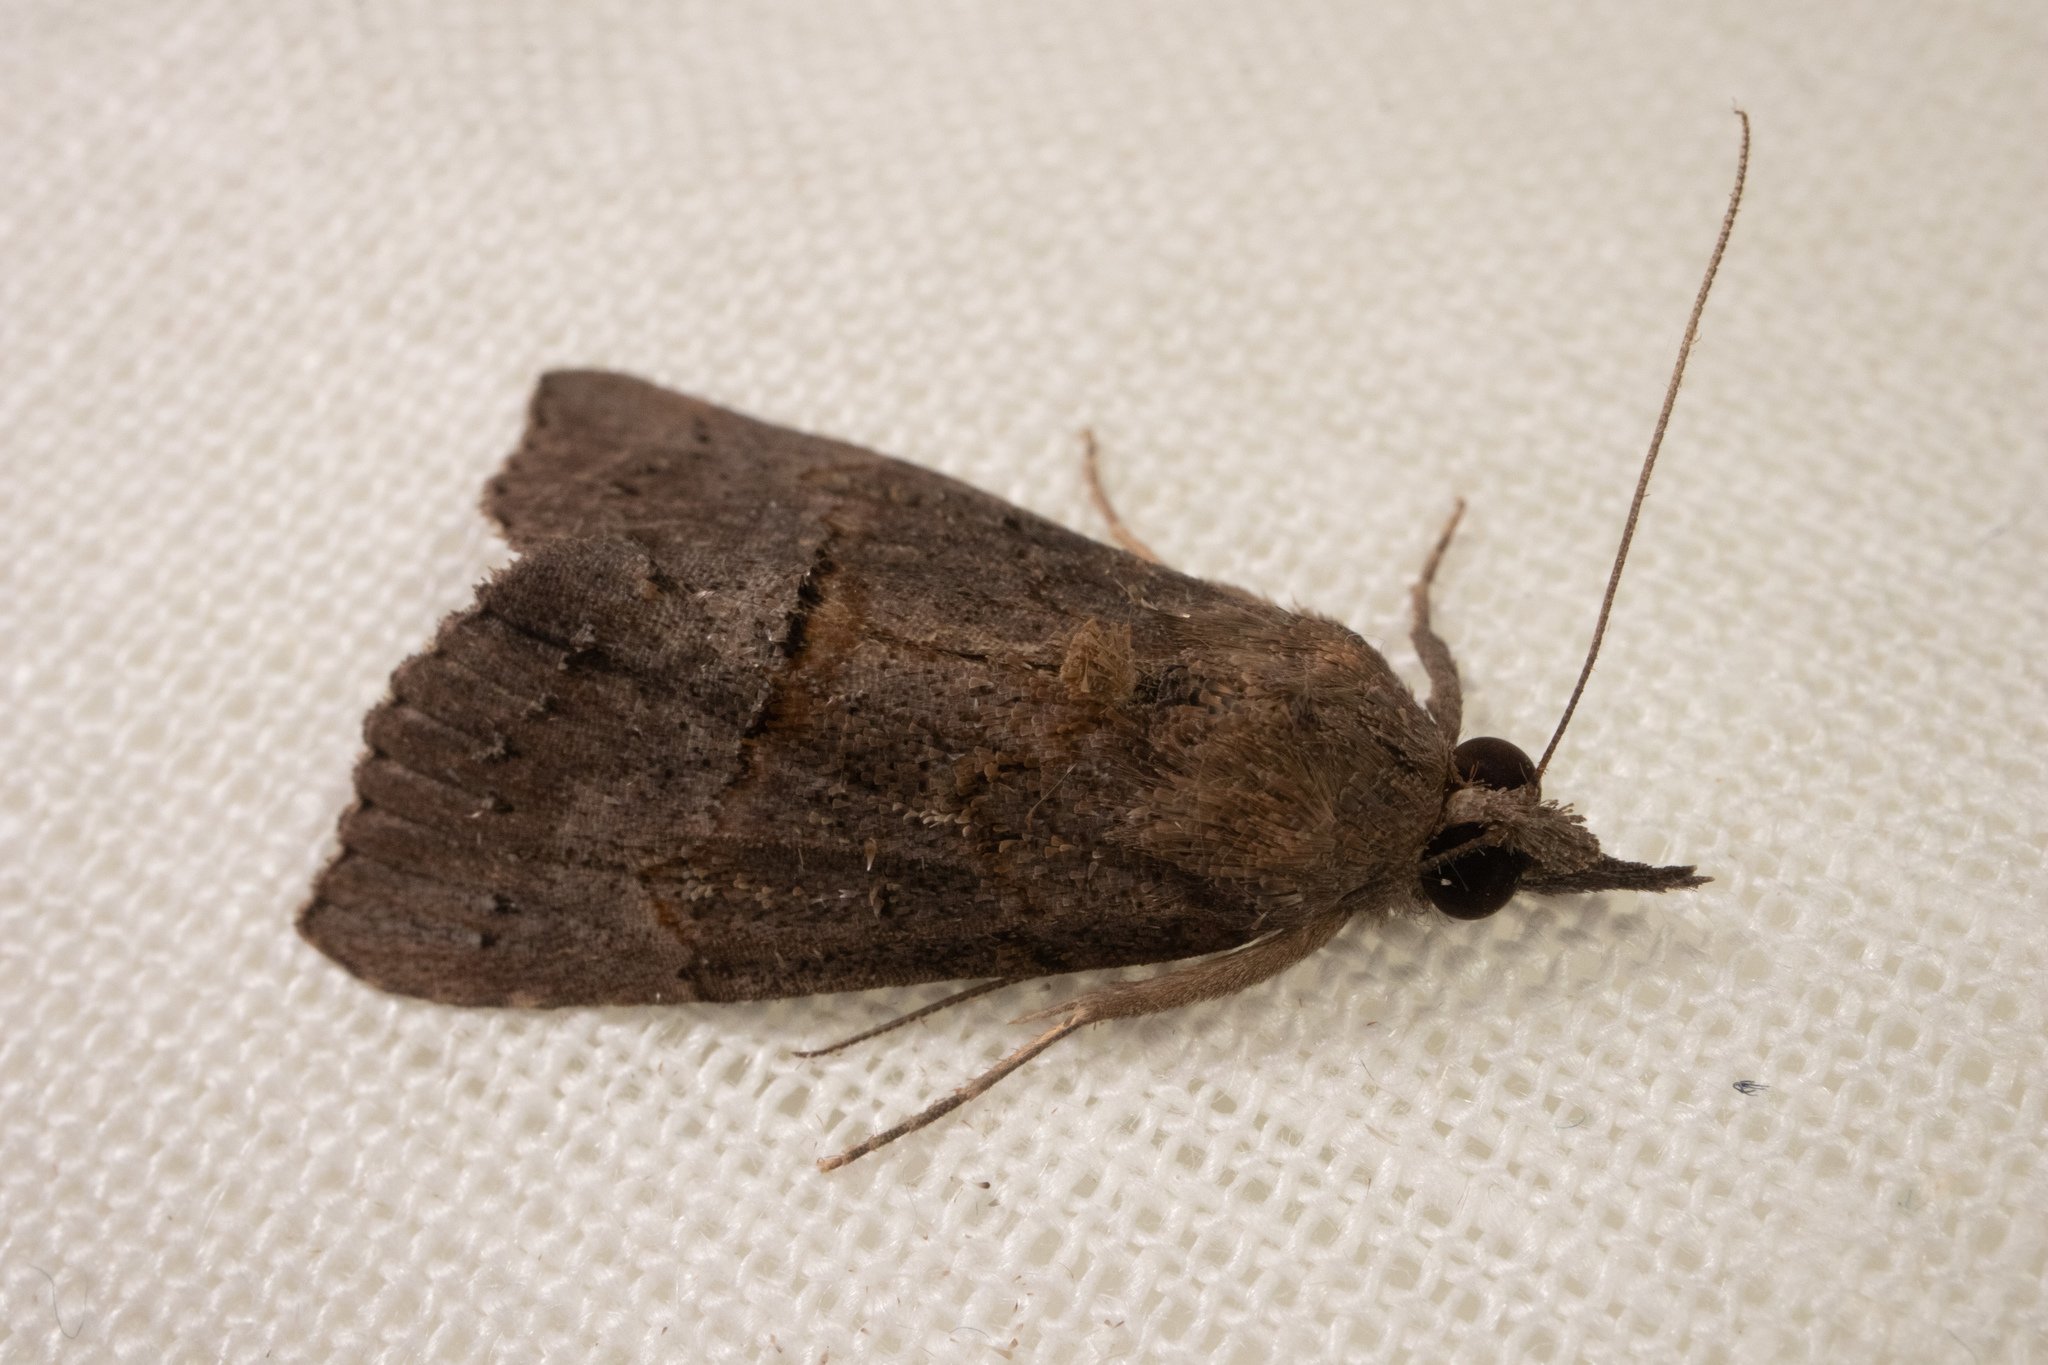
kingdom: Animalia
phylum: Arthropoda
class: Insecta
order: Lepidoptera
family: Erebidae
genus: Hypena
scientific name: Hypena scabra
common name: Green cloverworm
